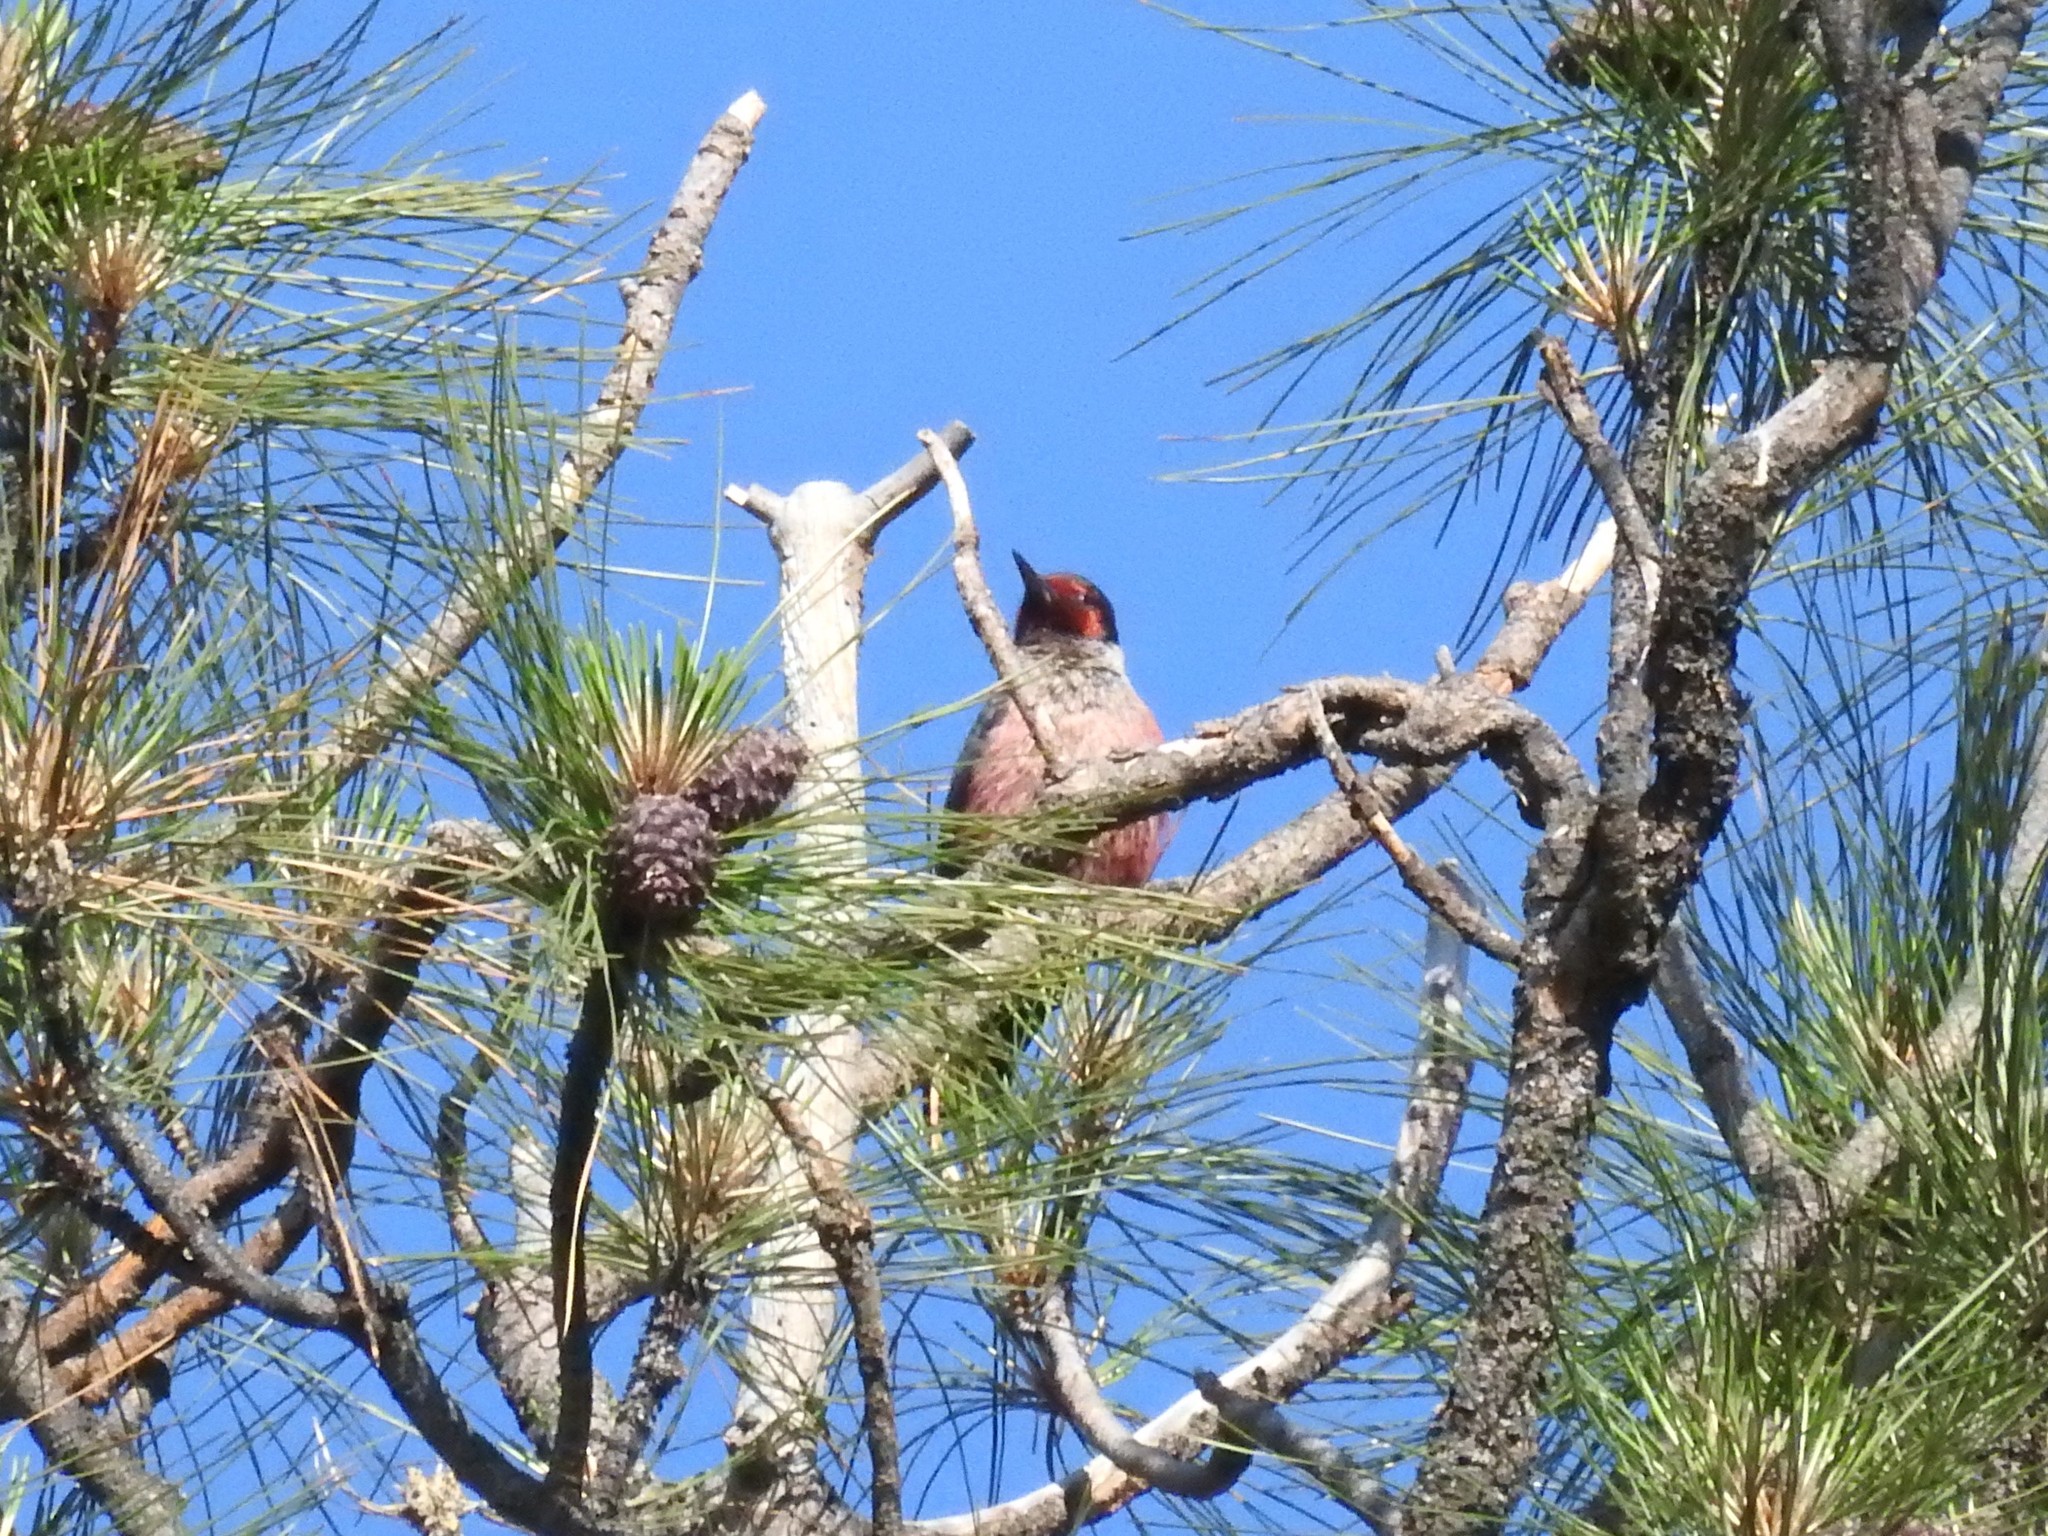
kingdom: Animalia
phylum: Chordata
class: Aves
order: Piciformes
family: Picidae
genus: Melanerpes
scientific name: Melanerpes lewis
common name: Lewis's woodpecker
